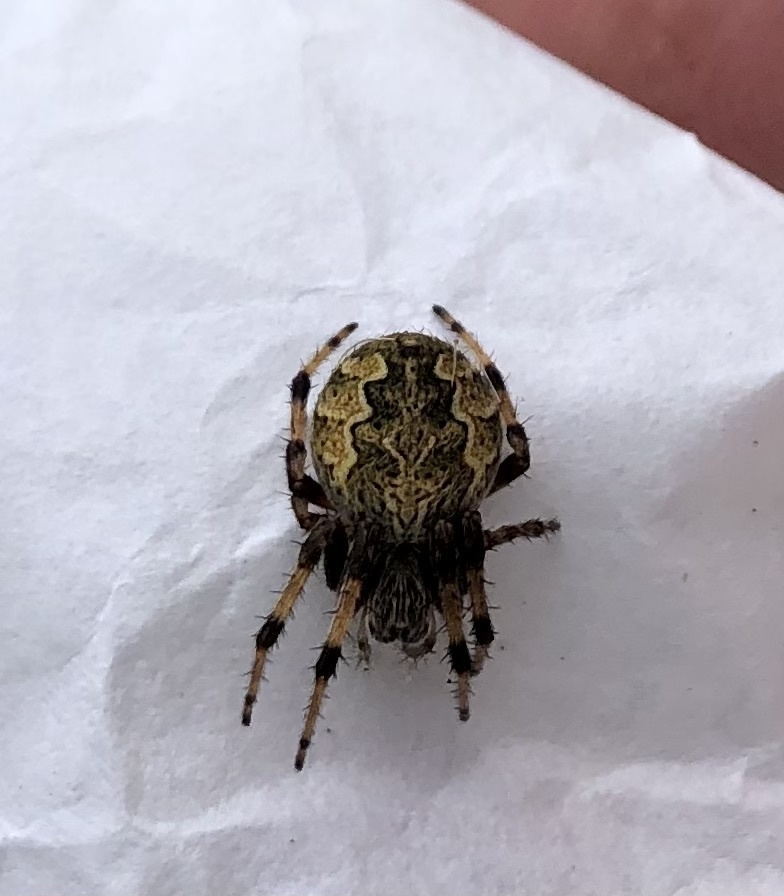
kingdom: Animalia
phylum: Arthropoda
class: Arachnida
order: Araneae
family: Araneidae
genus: Salsa
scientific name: Salsa fuliginata
